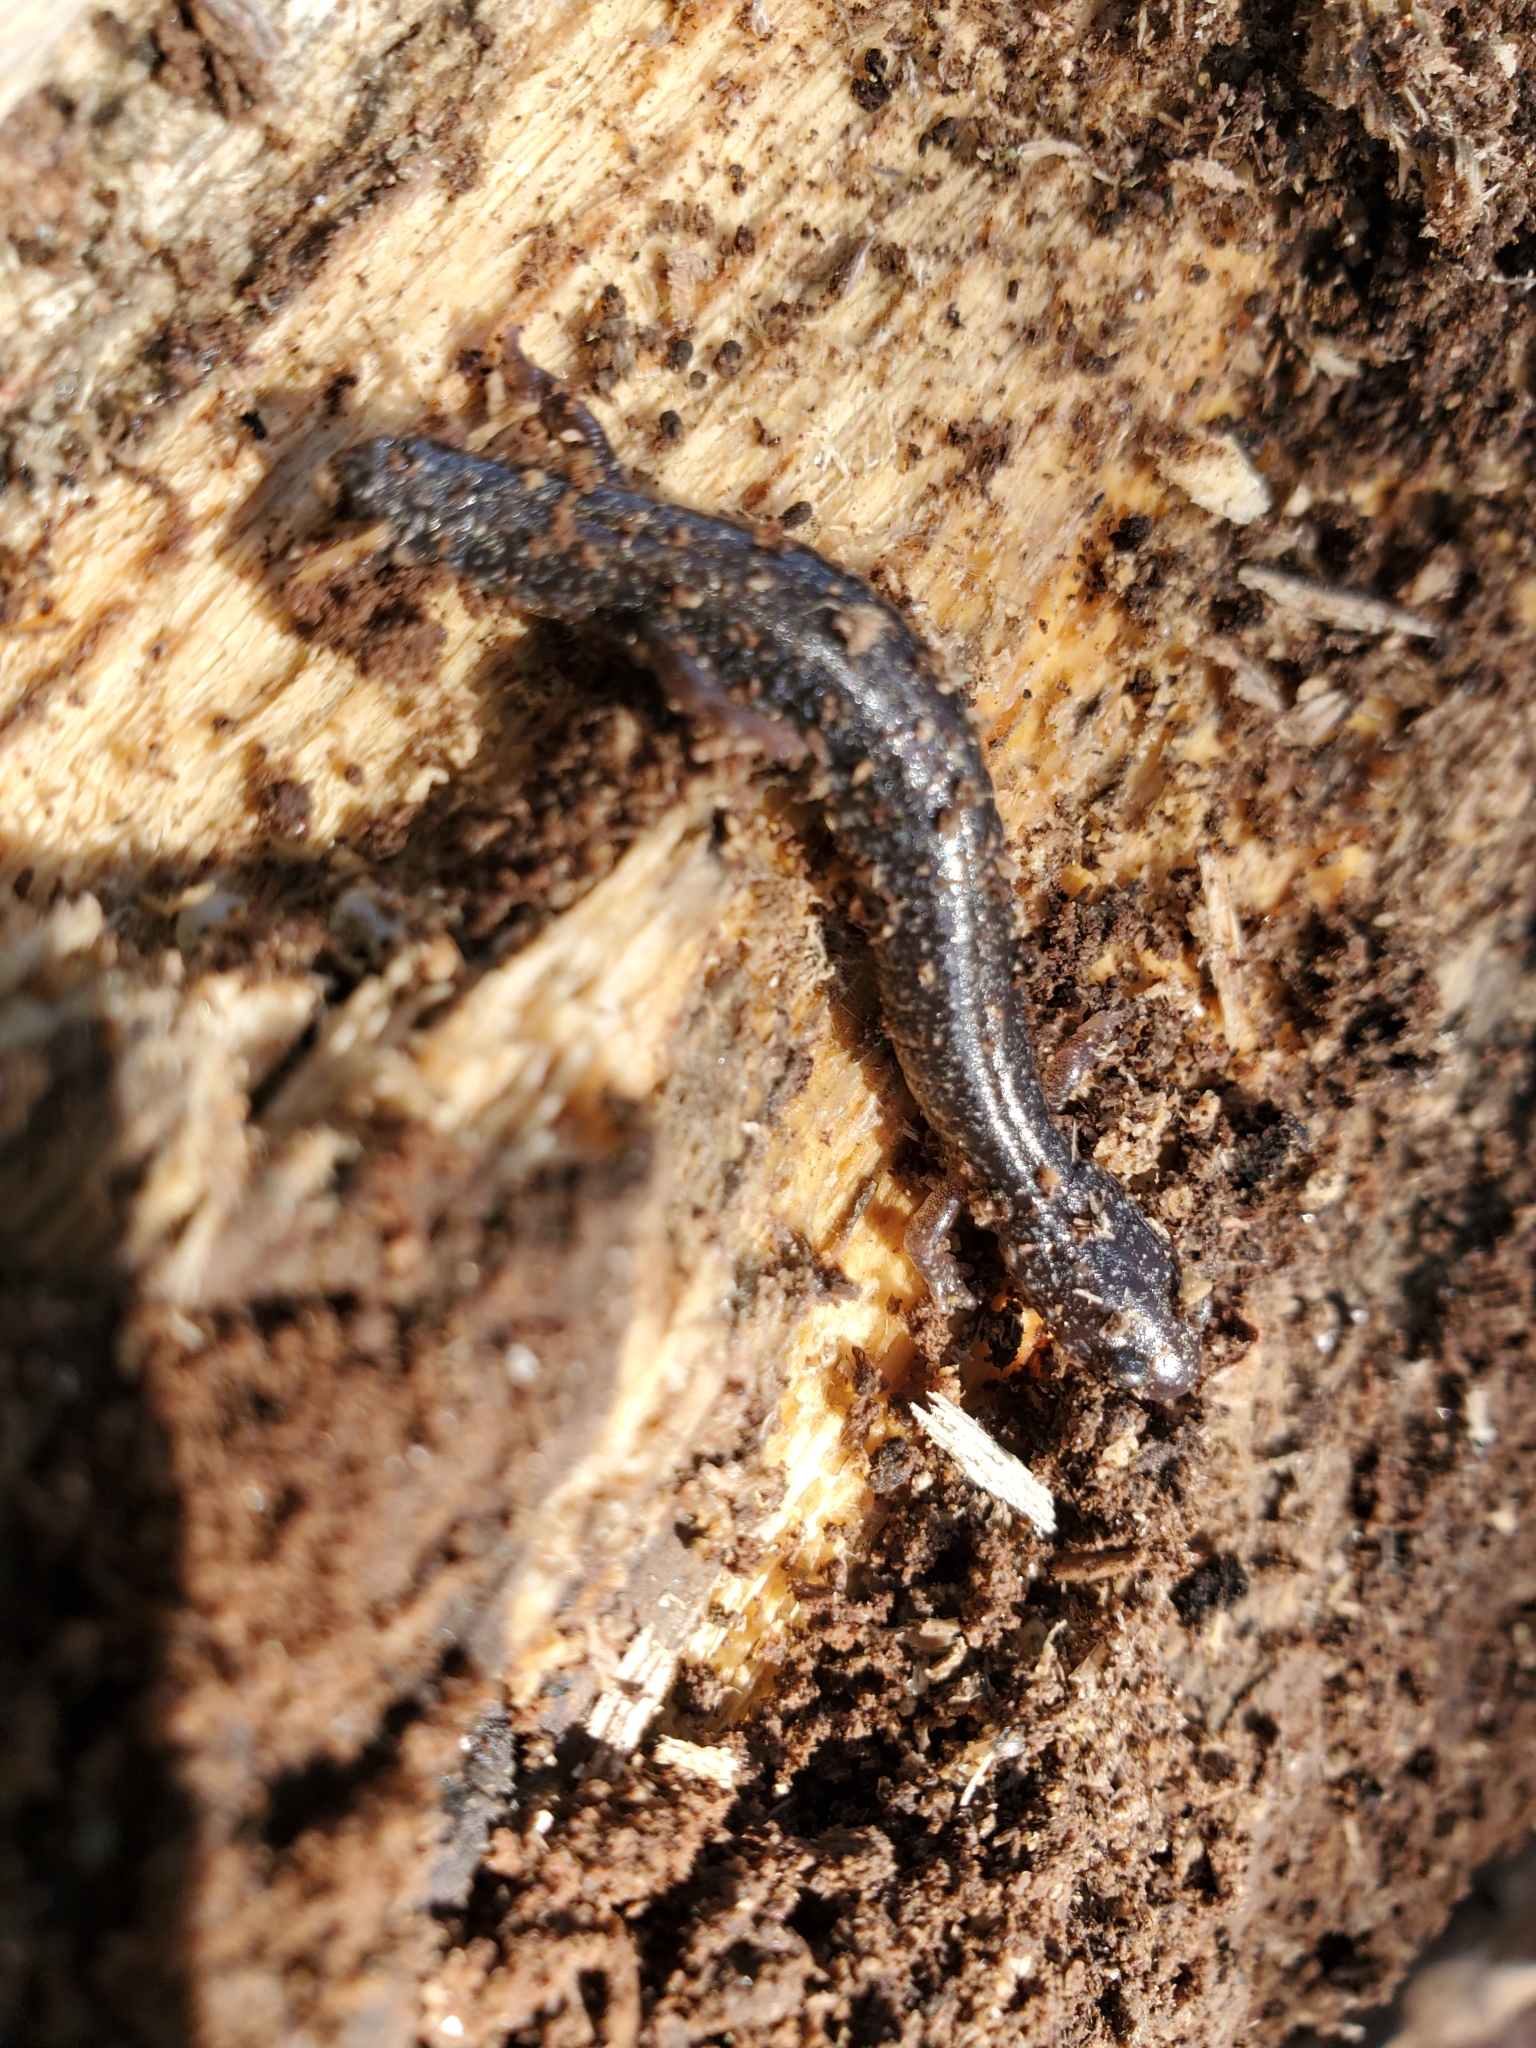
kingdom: Animalia
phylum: Chordata
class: Amphibia
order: Caudata
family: Plethodontidae
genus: Plethodon
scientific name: Plethodon cinereus
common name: Redback salamander
